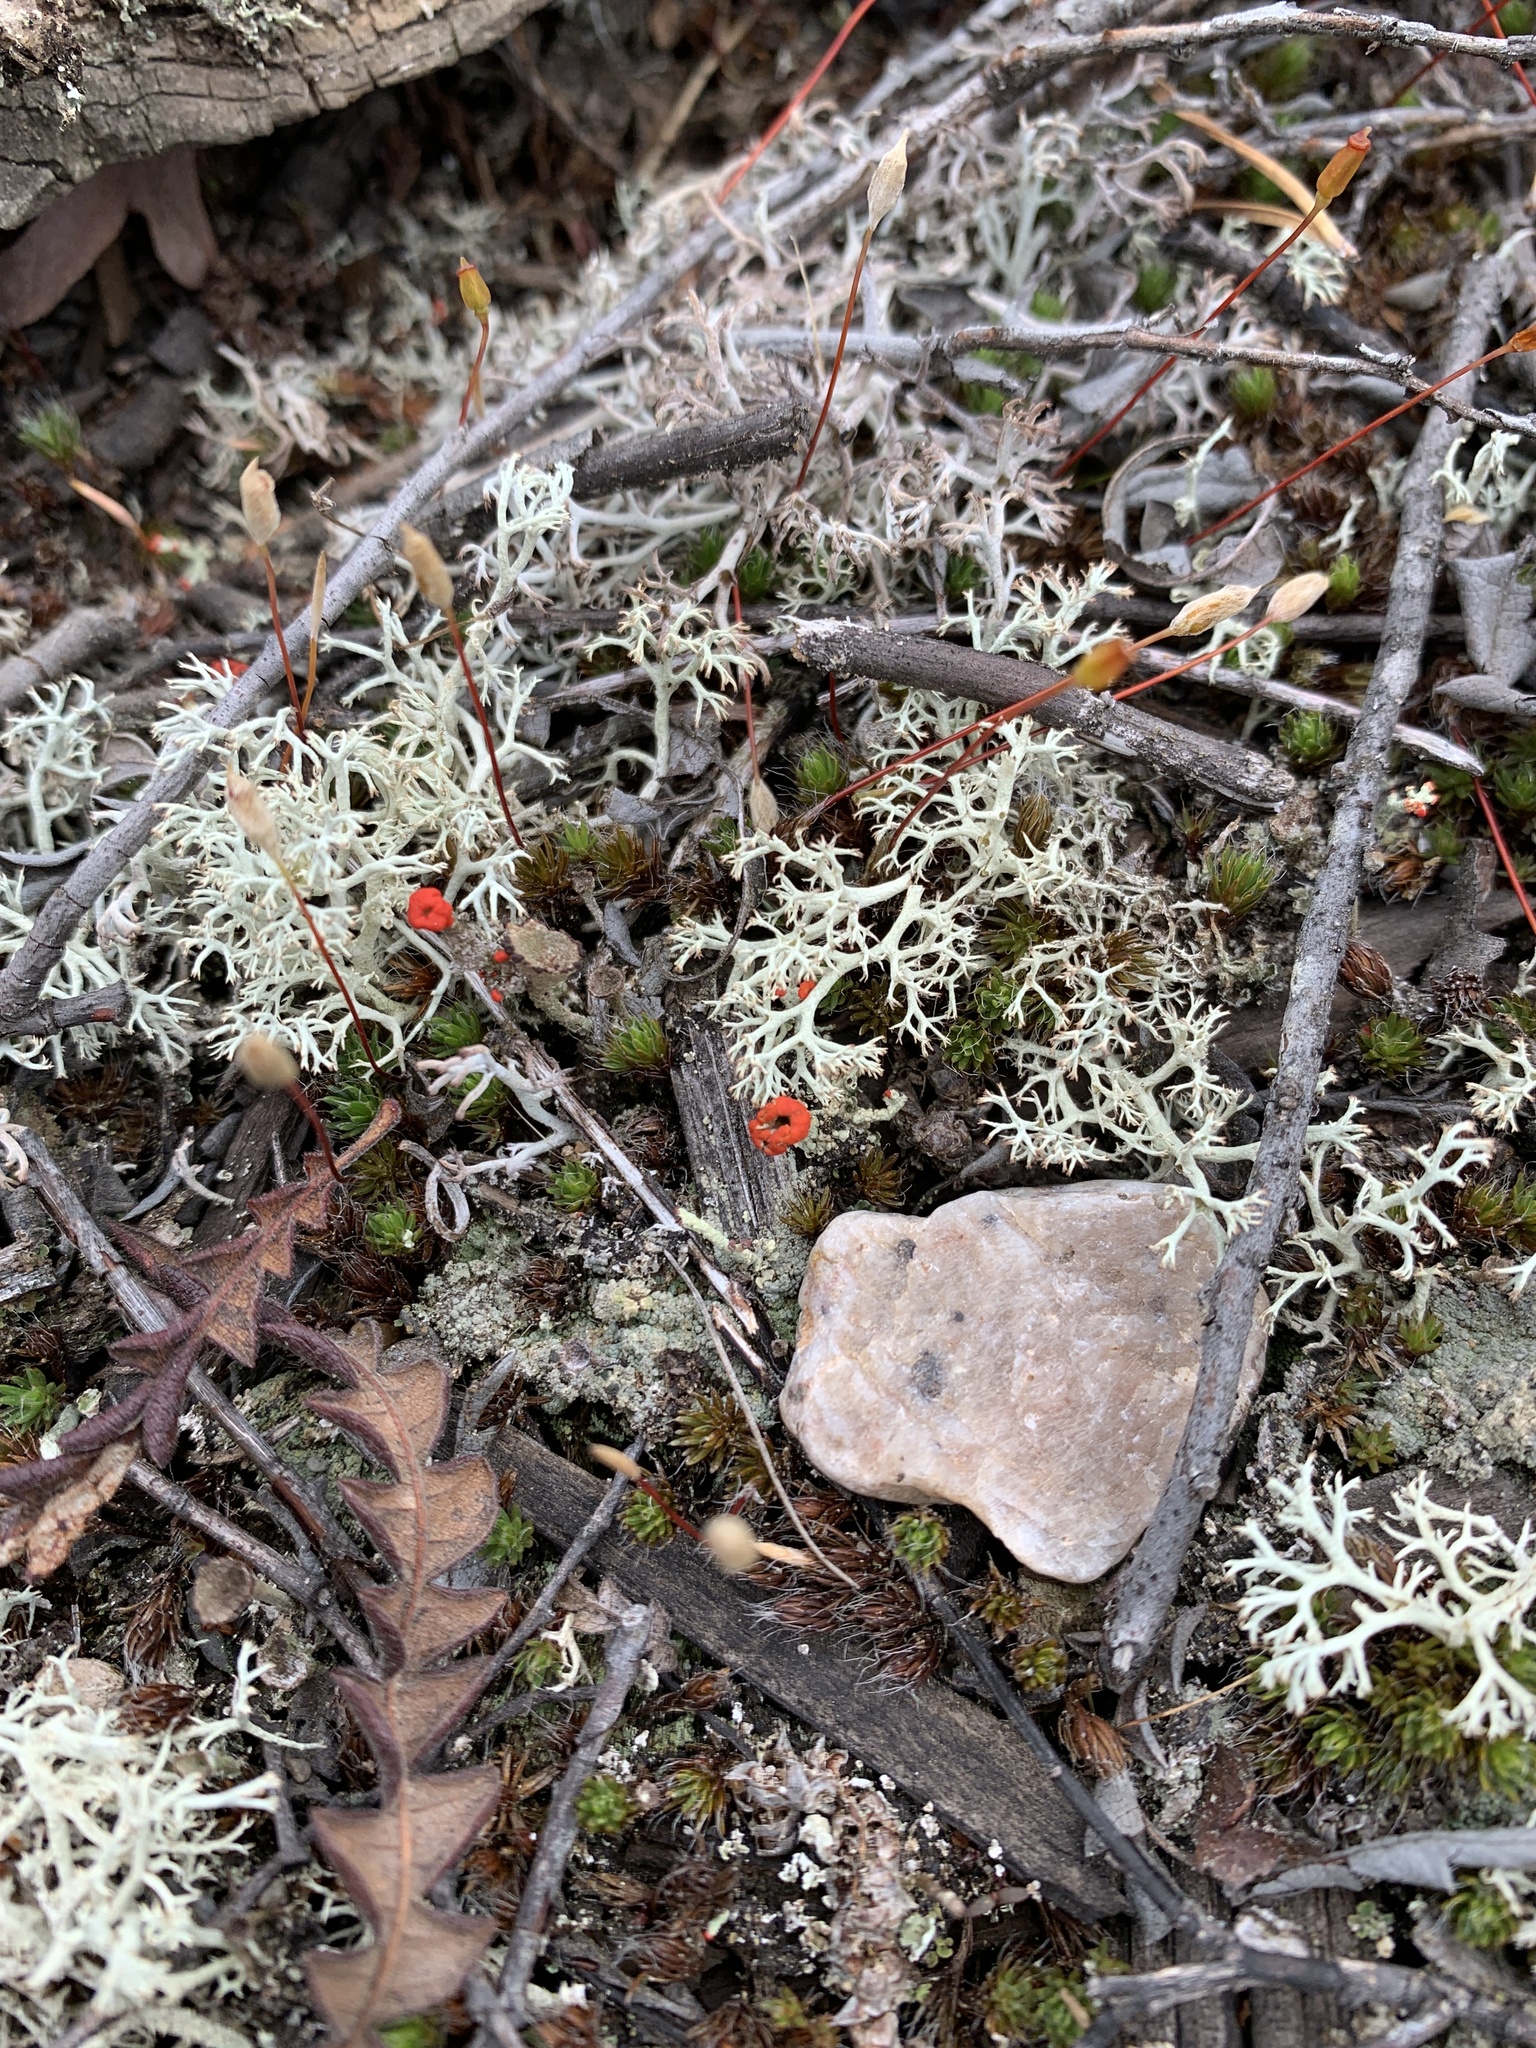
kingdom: Fungi
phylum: Ascomycota
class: Lecanoromycetes
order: Lecanorales
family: Cladoniaceae
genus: Cladonia
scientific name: Cladonia cristatella
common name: British soldier lichen
